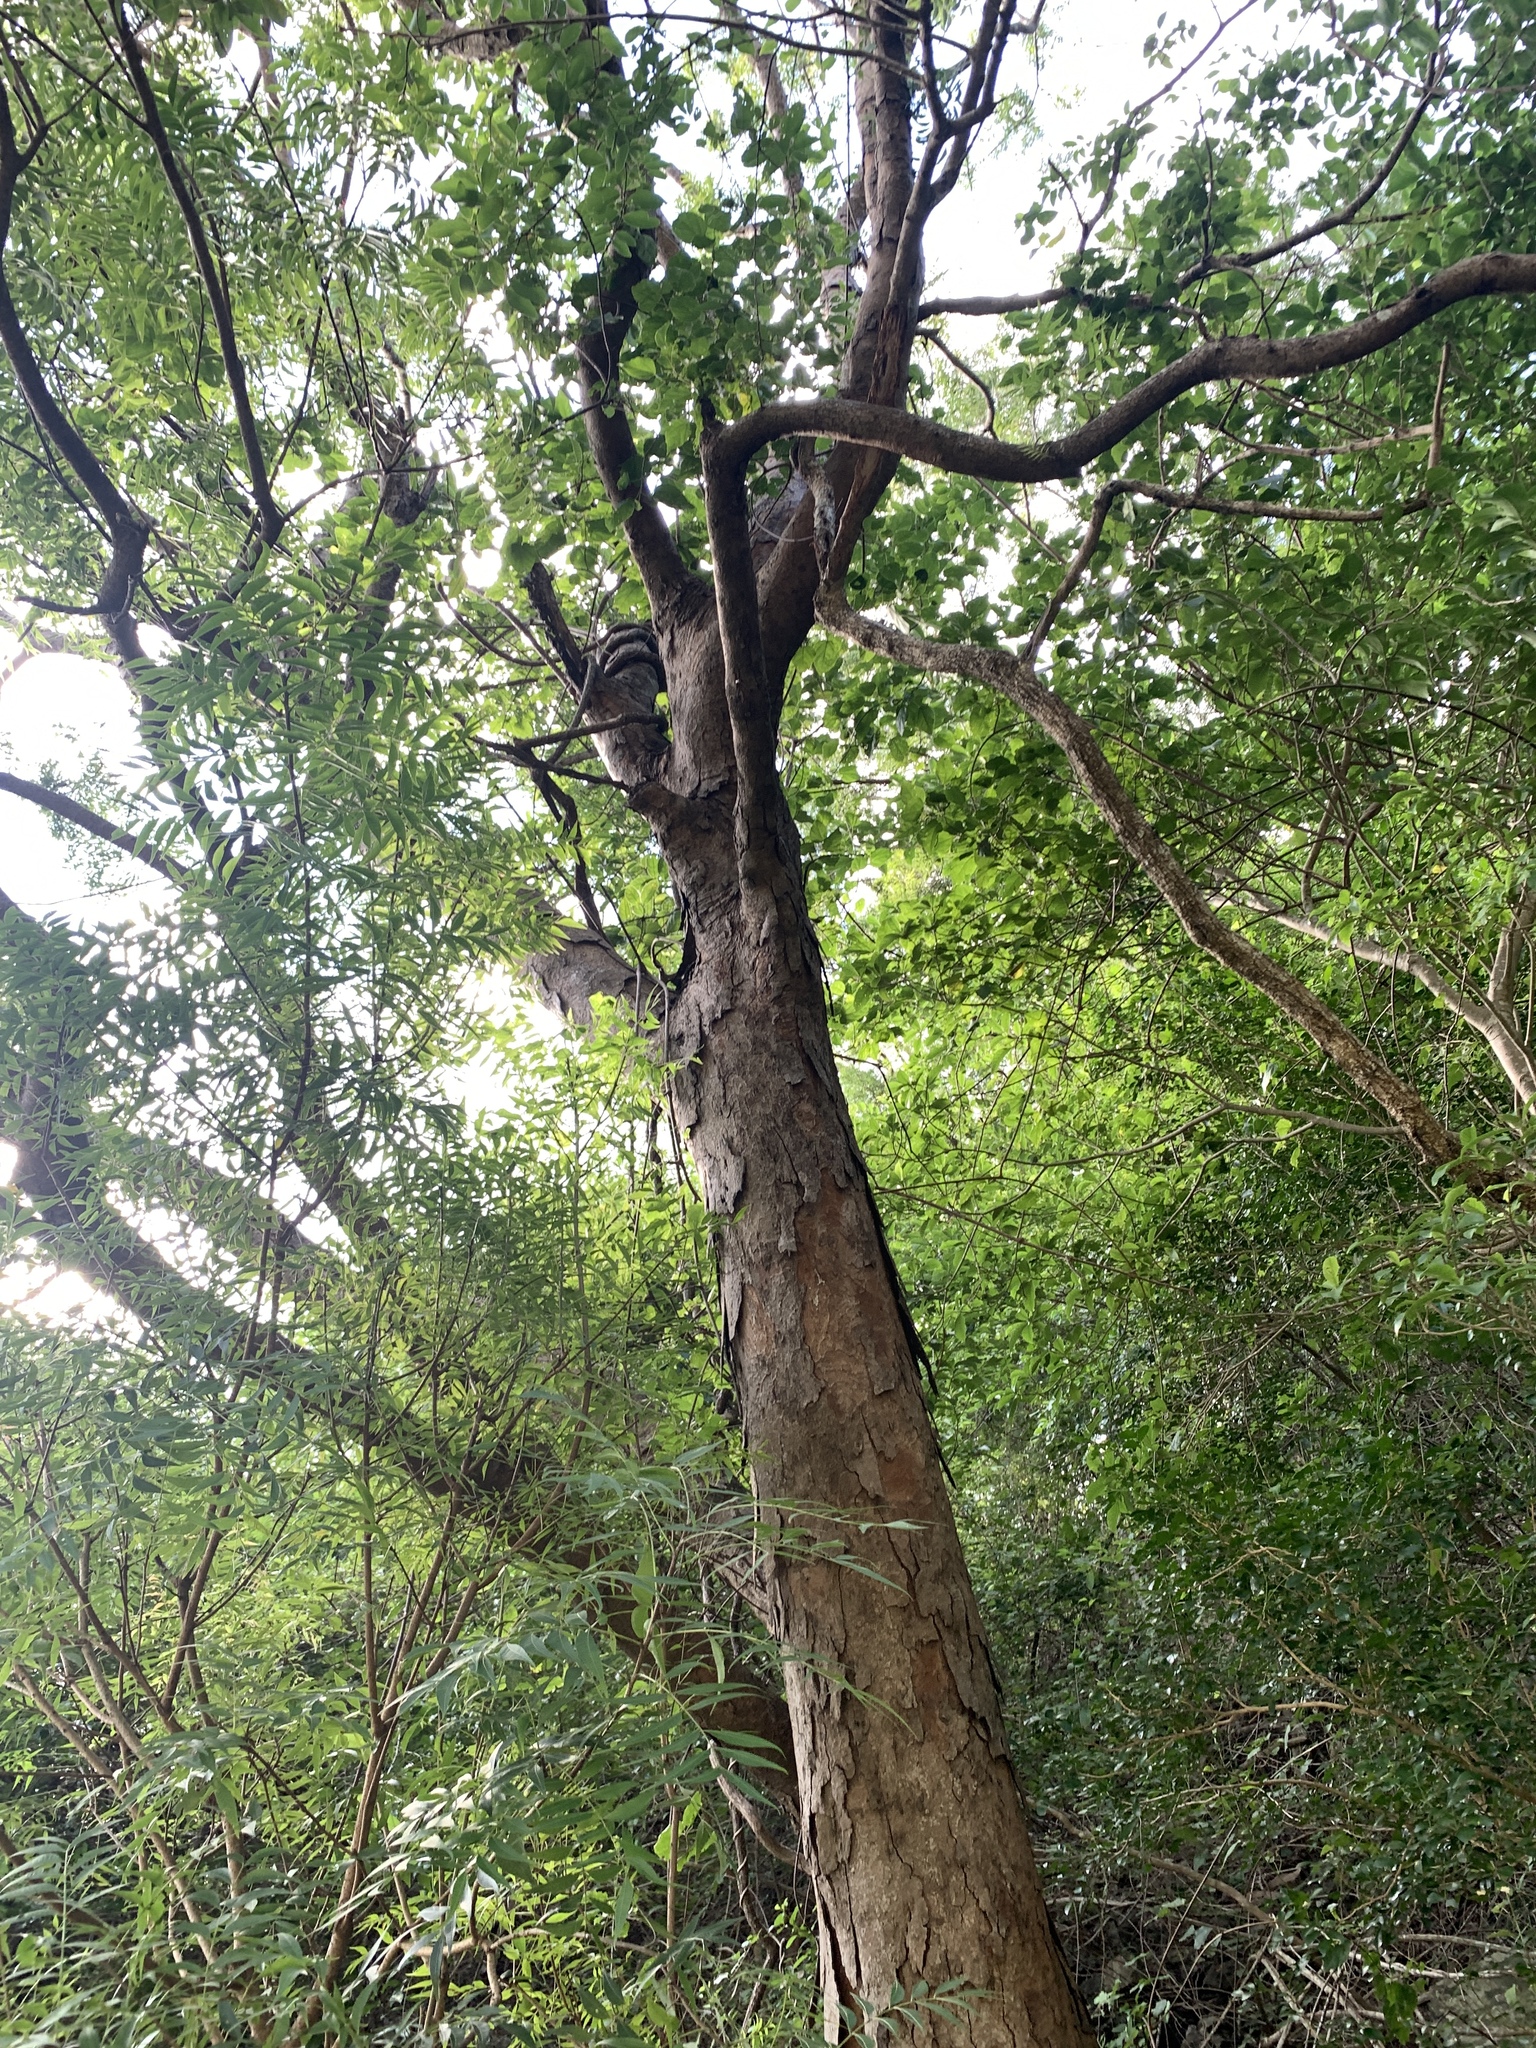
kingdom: Plantae
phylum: Tracheophyta
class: Magnoliopsida
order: Sapindales
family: Anacardiaceae
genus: Pistacia
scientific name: Pistacia chinensis
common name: Chinese pistache
